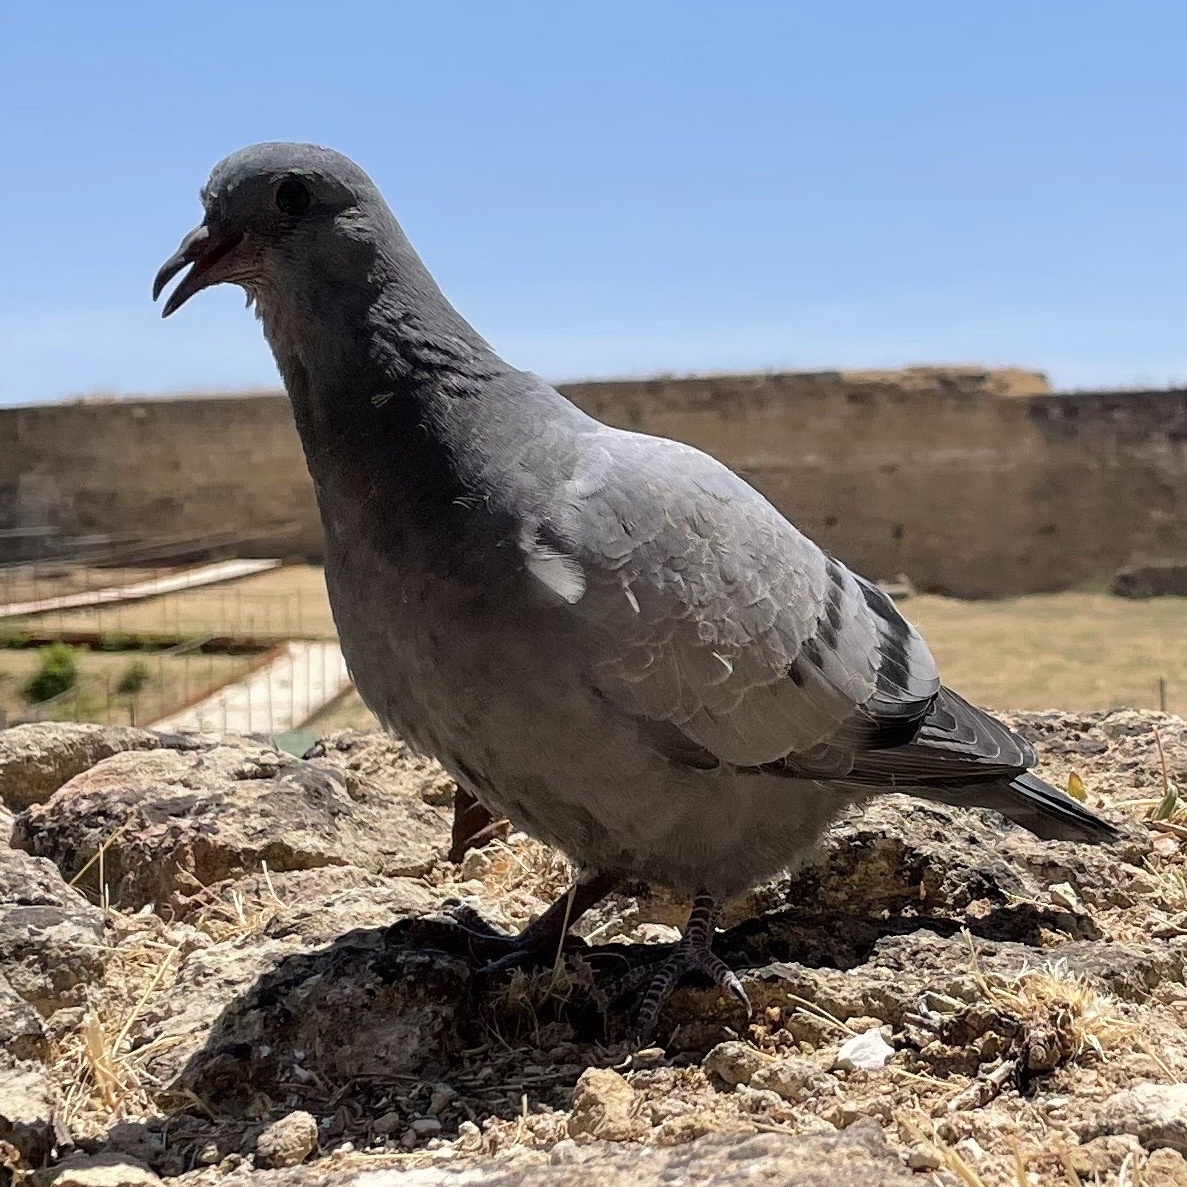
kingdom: Animalia
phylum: Chordata
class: Aves
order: Columbiformes
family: Columbidae
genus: Columba
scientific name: Columba livia
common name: Rock pigeon
